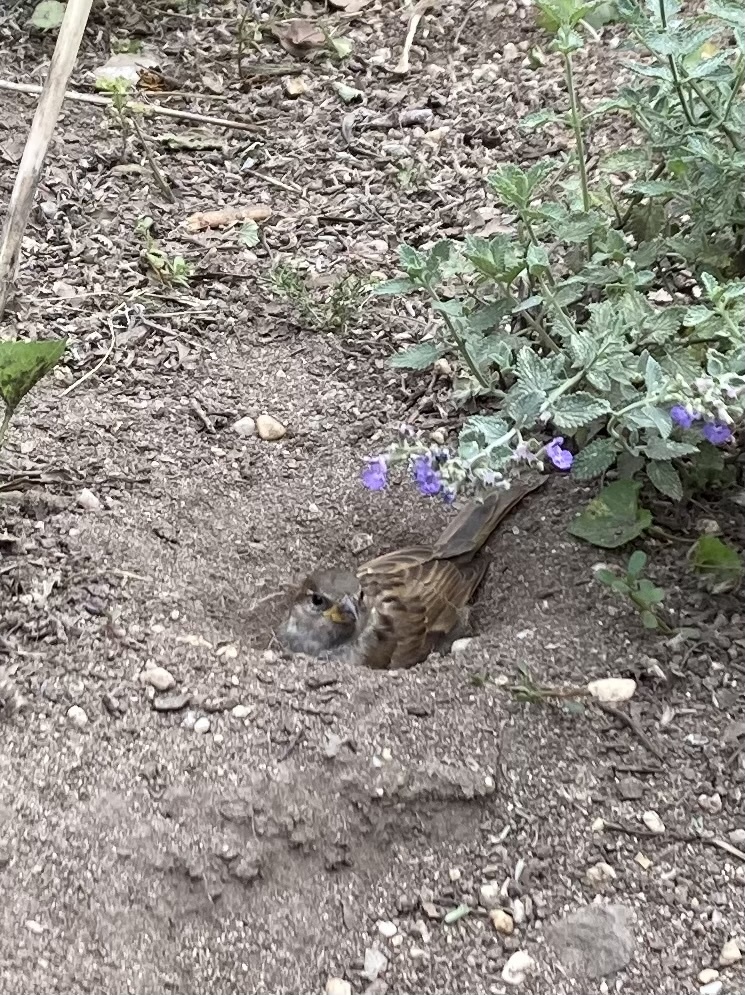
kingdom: Animalia
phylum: Chordata
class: Aves
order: Passeriformes
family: Passeridae
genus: Passer
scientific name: Passer domesticus
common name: House sparrow
